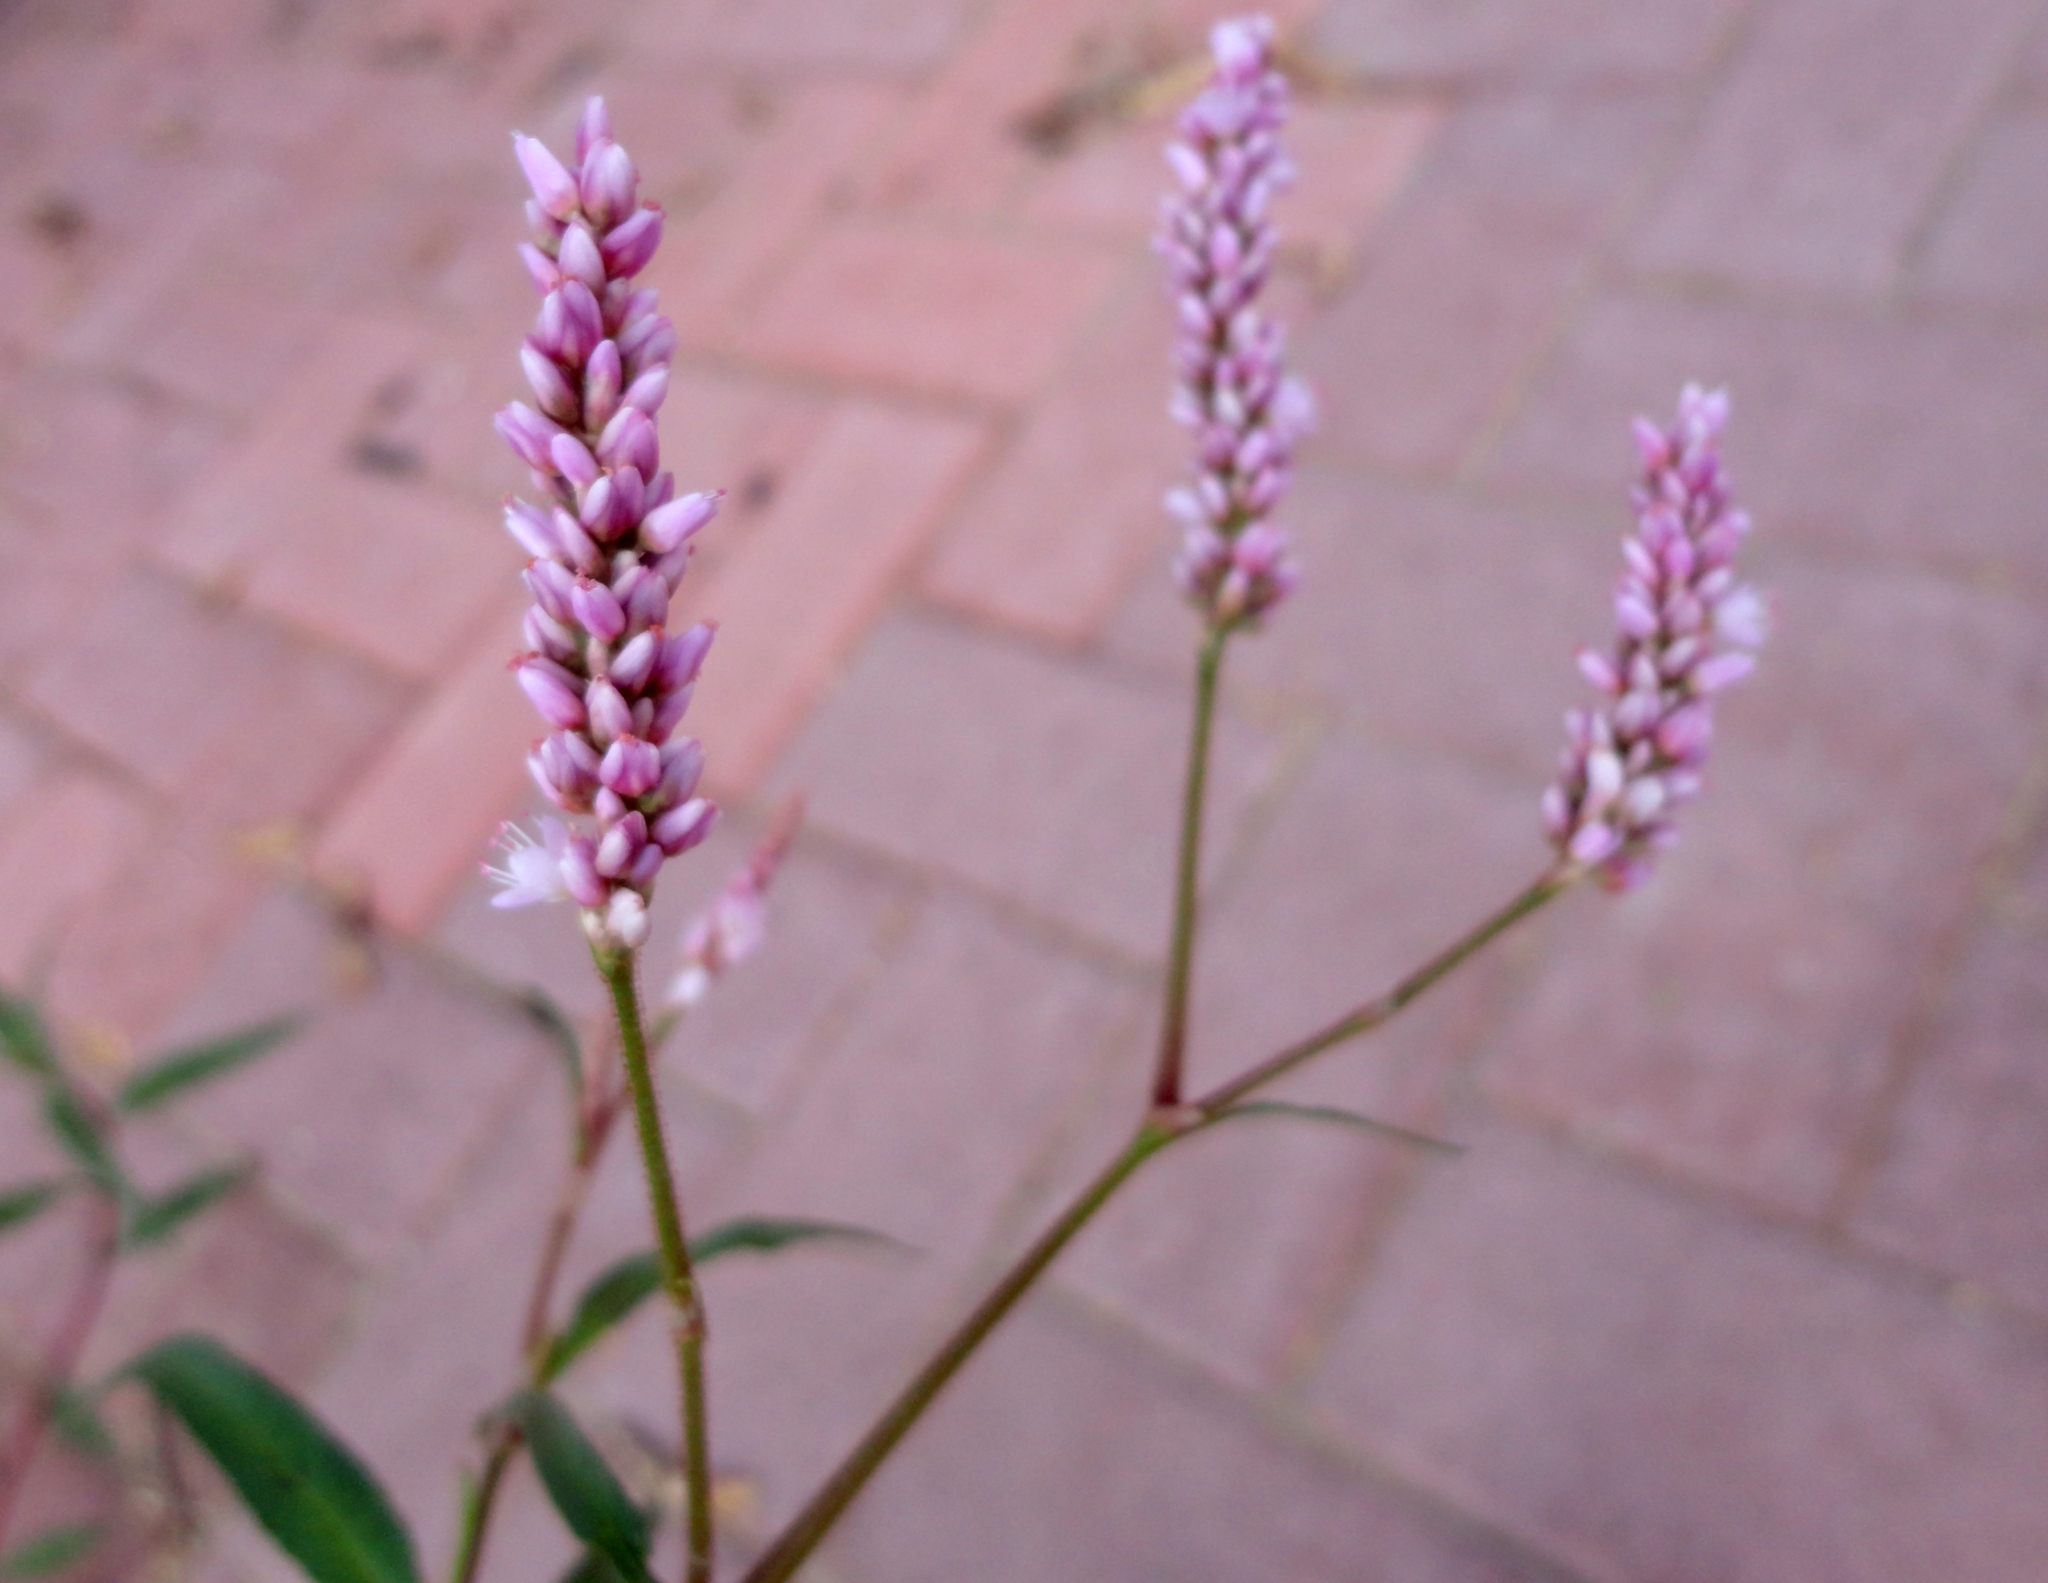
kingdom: Plantae
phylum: Tracheophyta
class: Magnoliopsida
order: Caryophyllales
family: Polygonaceae
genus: Persicaria
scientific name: Persicaria pensylvanica
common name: Pinkweed
